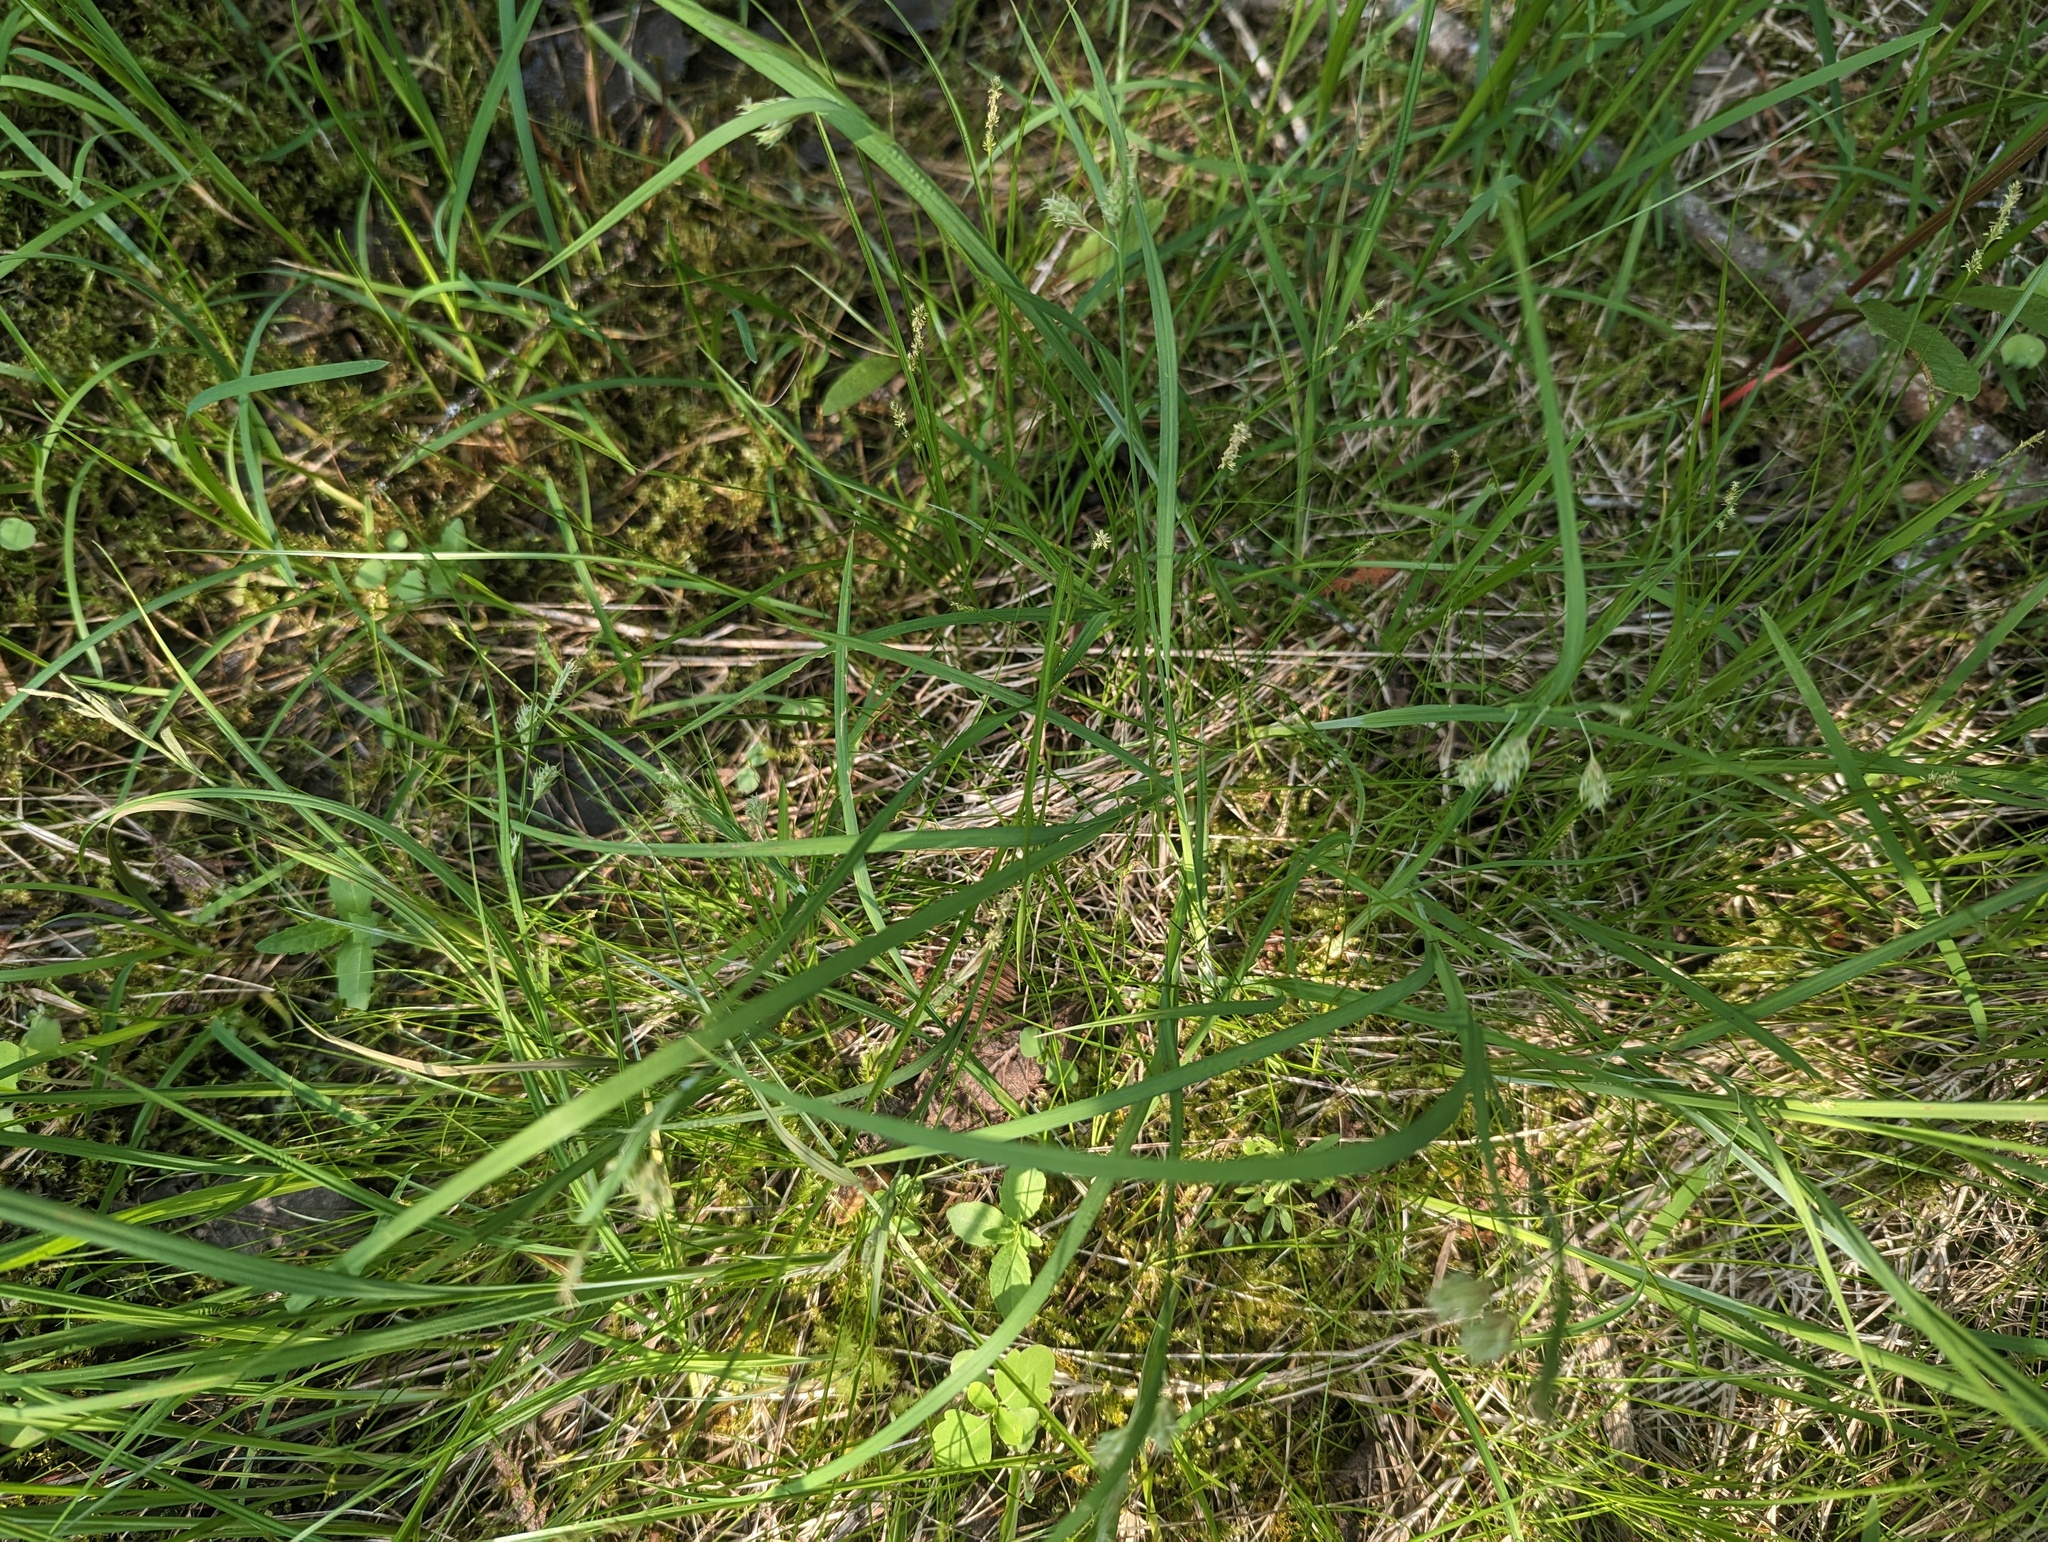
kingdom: Plantae
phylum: Tracheophyta
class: Liliopsida
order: Poales
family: Cyperaceae
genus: Carex
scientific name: Carex magellanica
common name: Bog sedge
